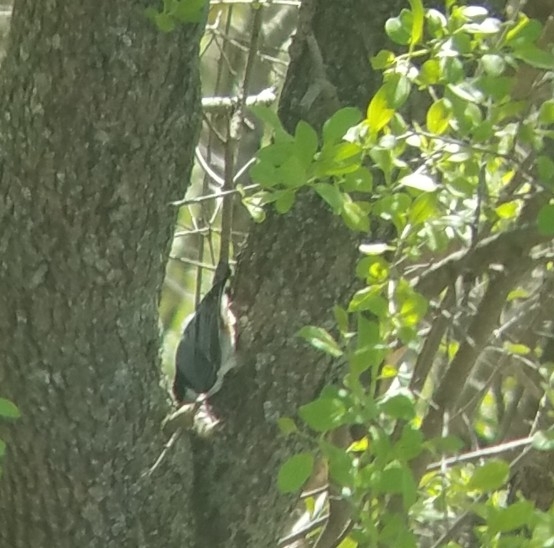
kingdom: Animalia
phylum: Chordata
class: Aves
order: Passeriformes
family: Sittidae
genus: Sitta
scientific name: Sitta carolinensis
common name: White-breasted nuthatch
